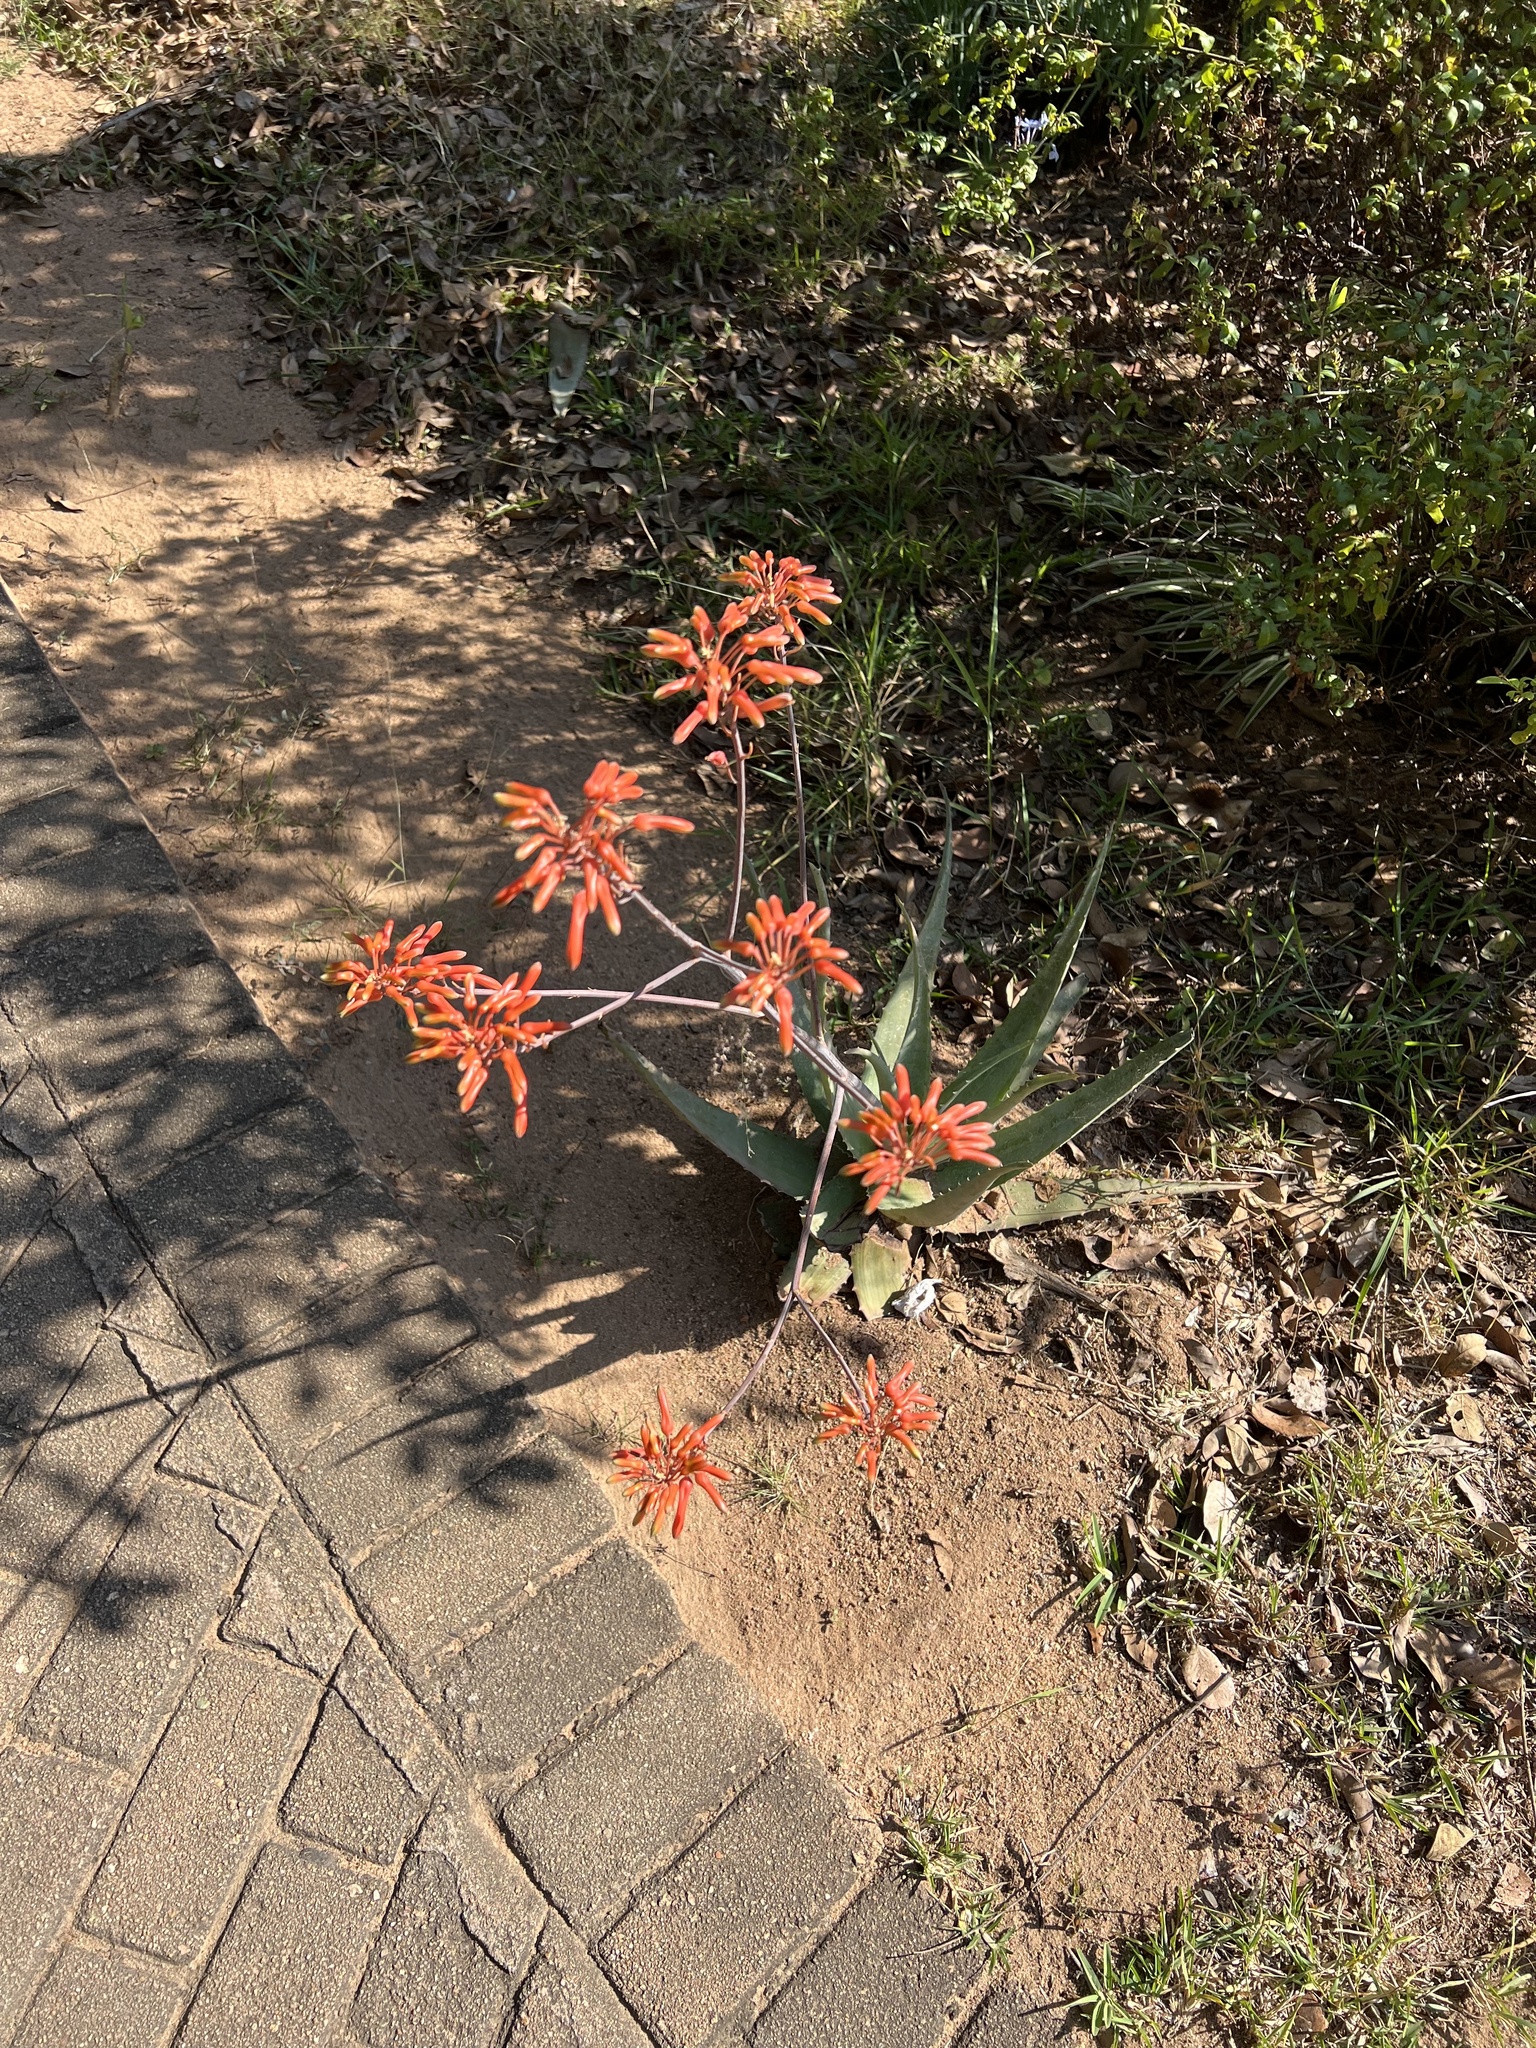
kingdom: Plantae
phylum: Tracheophyta
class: Liliopsida
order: Asparagales
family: Asphodelaceae
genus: Aloe
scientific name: Aloe chabaudii
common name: Chabaud's aloe
